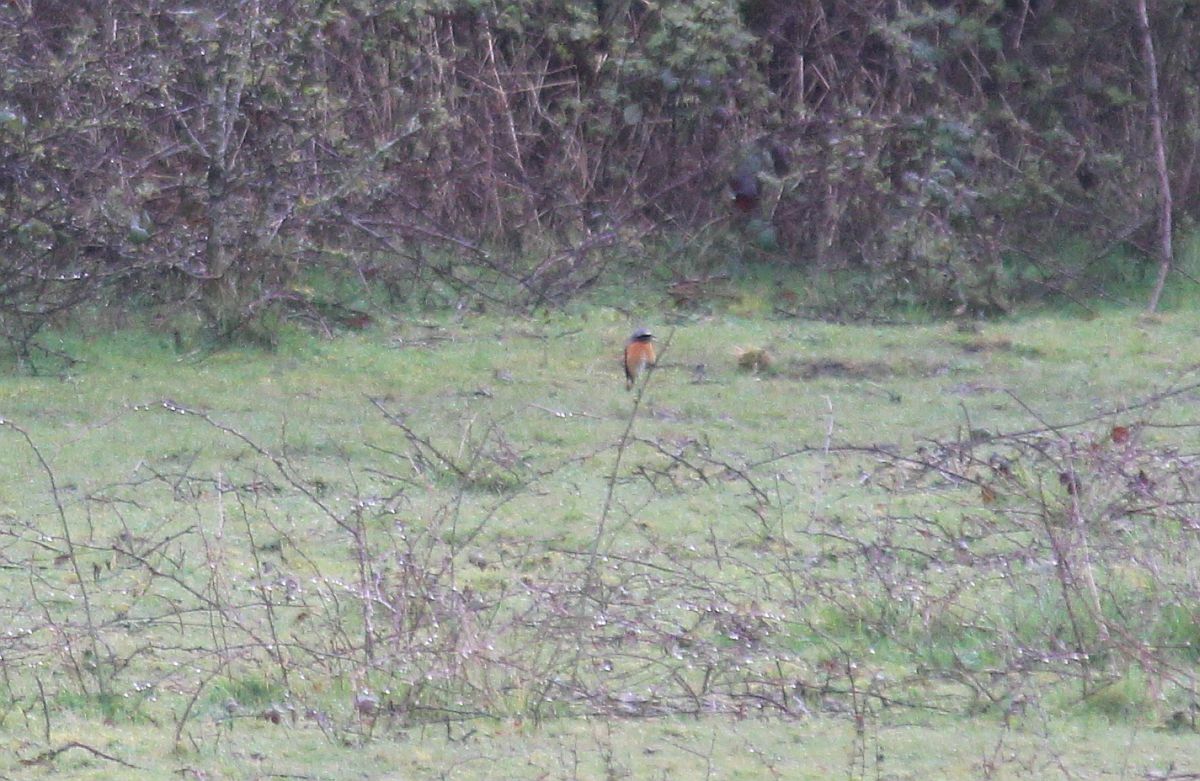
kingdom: Animalia
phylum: Chordata
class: Aves
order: Passeriformes
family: Muscicapidae
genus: Phoenicurus
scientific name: Phoenicurus phoenicurus
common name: Common redstart
